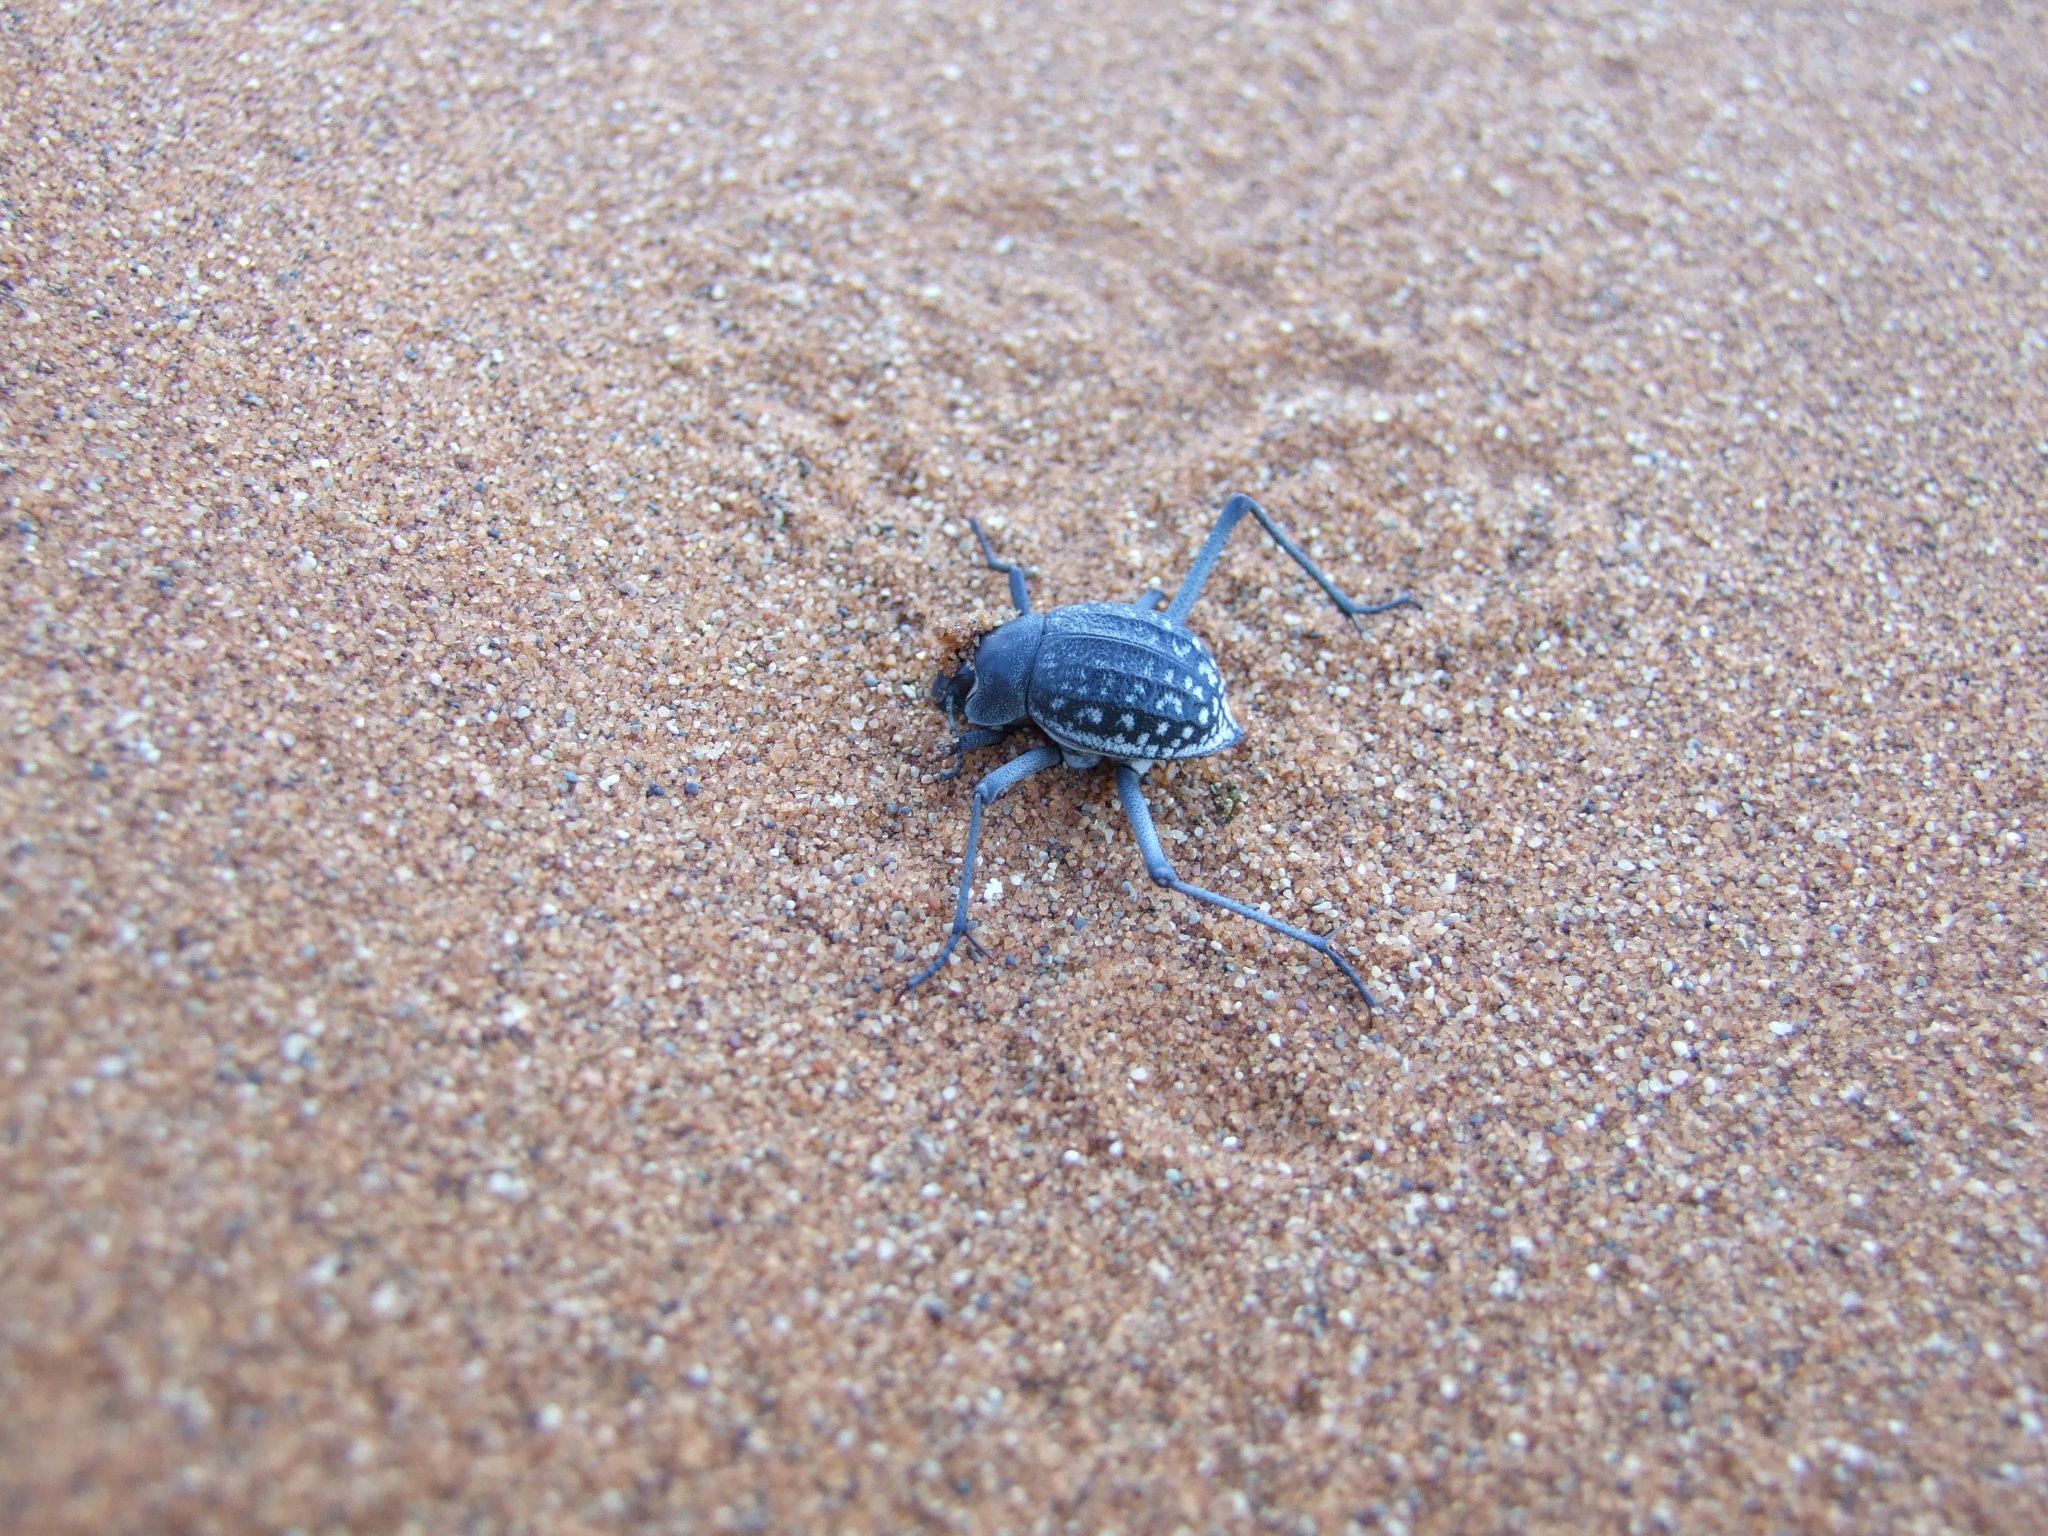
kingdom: Animalia
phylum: Arthropoda
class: Insecta
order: Coleoptera
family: Tenebrionidae
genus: Onymacris
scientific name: Onymacris
